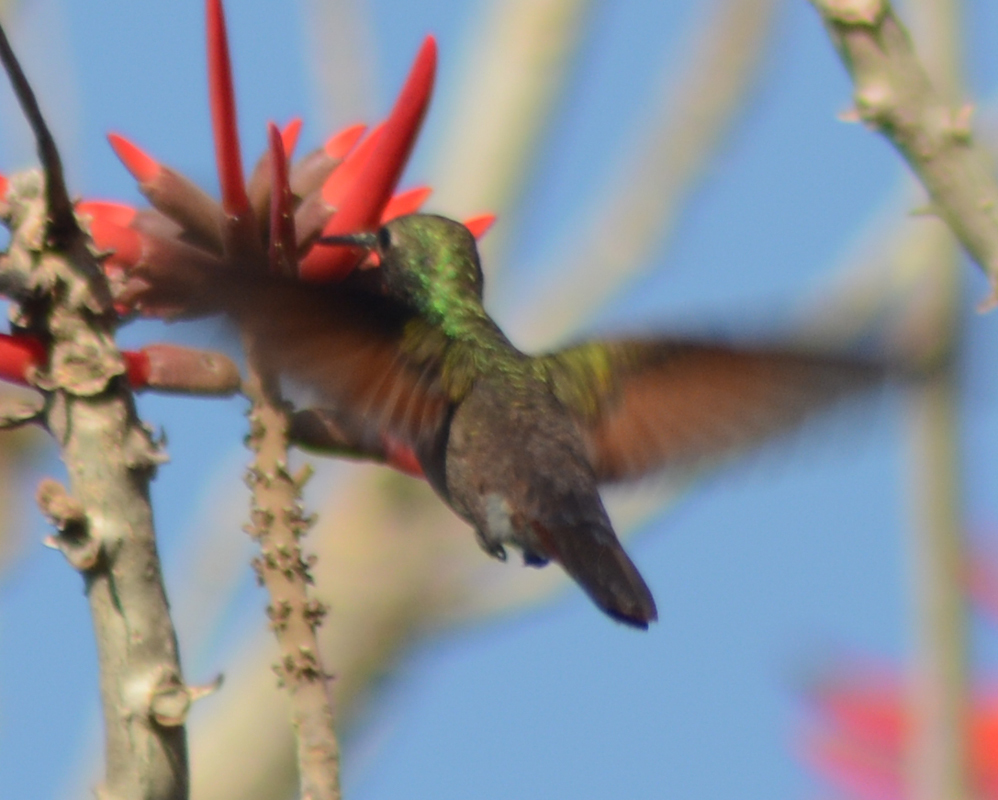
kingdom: Animalia
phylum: Chordata
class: Aves
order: Apodiformes
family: Trochilidae
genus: Saucerottia
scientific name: Saucerottia beryllina
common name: Berylline hummingbird
